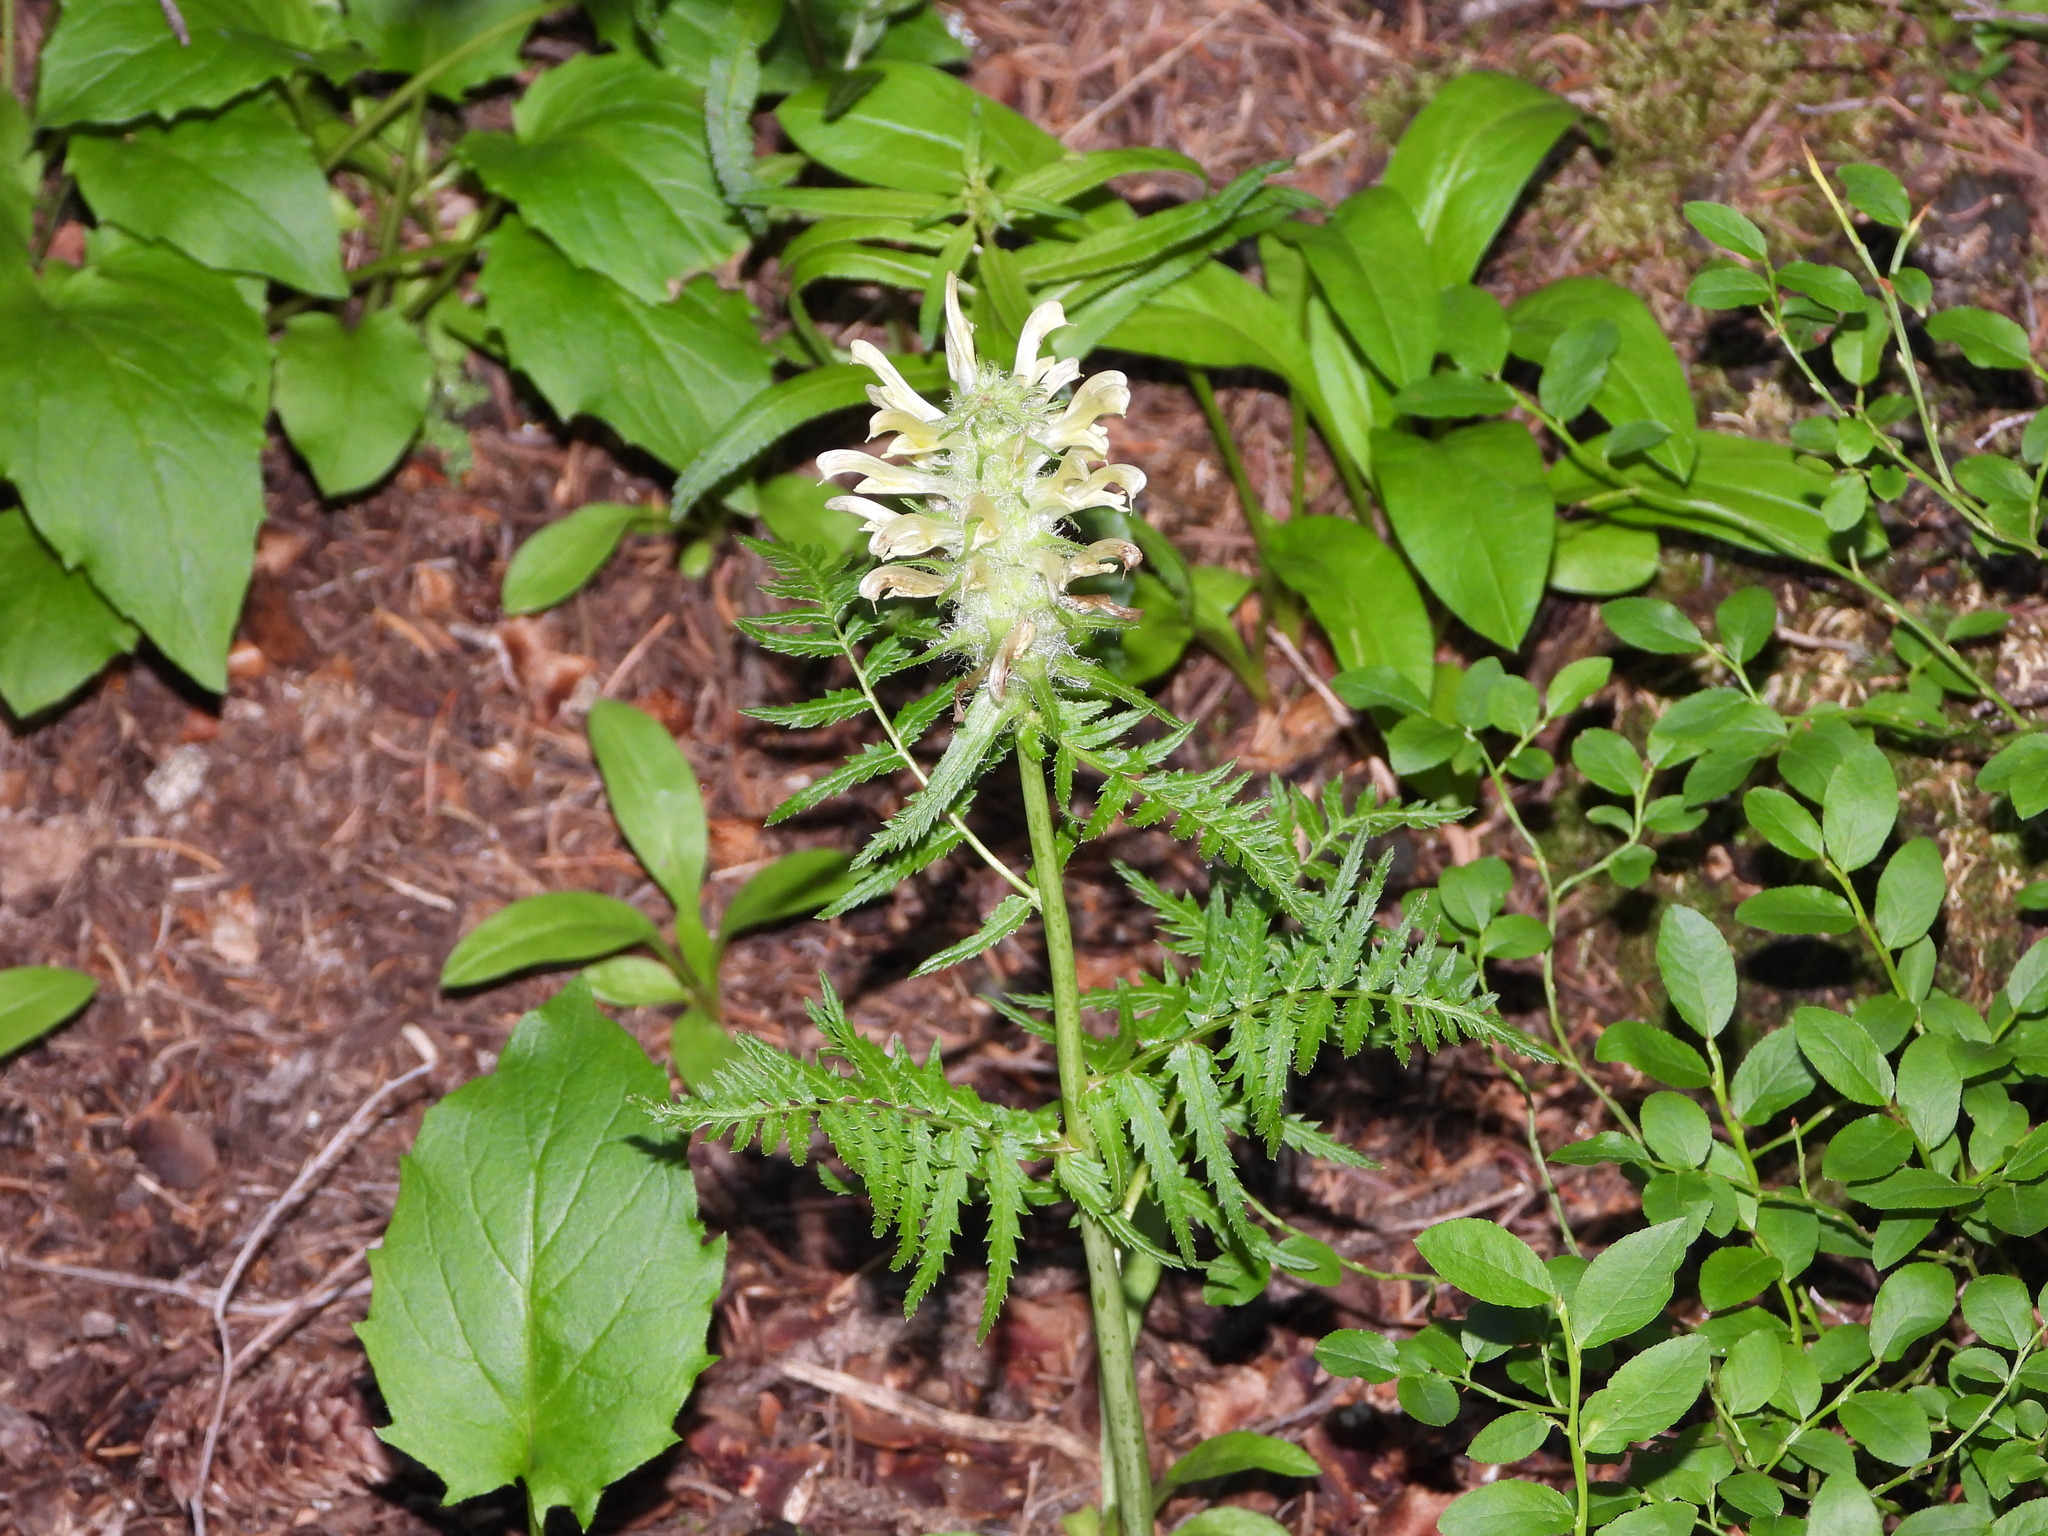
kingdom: Plantae
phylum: Tracheophyta
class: Magnoliopsida
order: Lamiales
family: Orobanchaceae
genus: Pedicularis
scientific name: Pedicularis bracteosa
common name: Bracted lousewort
